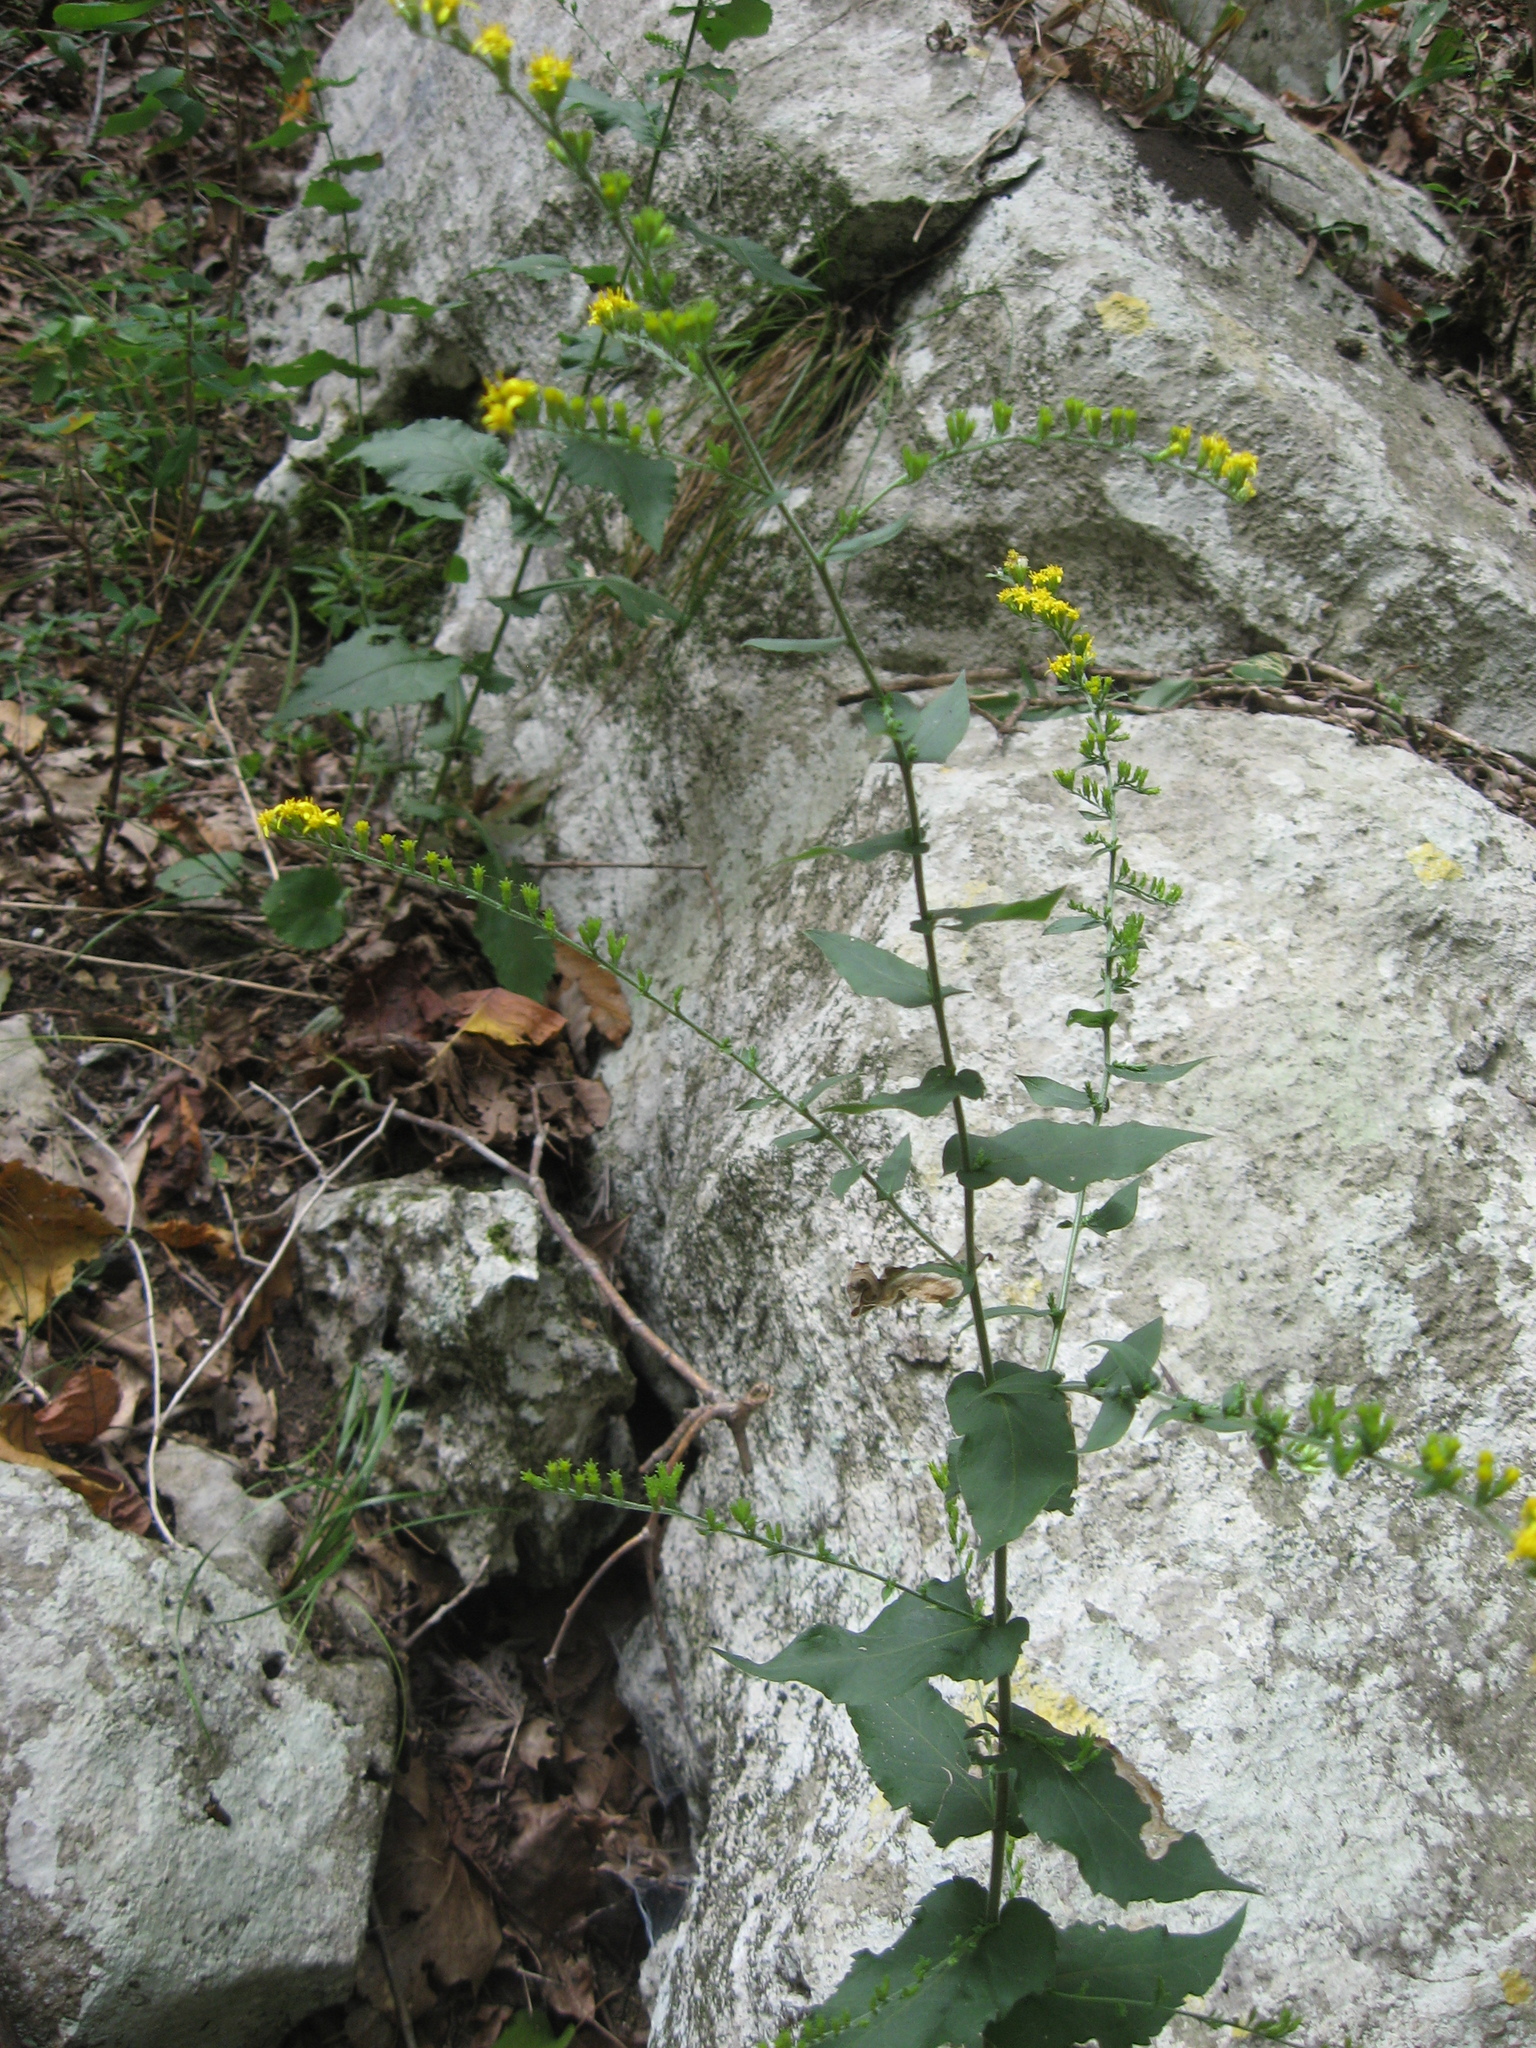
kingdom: Plantae
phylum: Tracheophyta
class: Magnoliopsida
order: Asterales
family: Asteraceae
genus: Solidago
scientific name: Solidago auriculata
